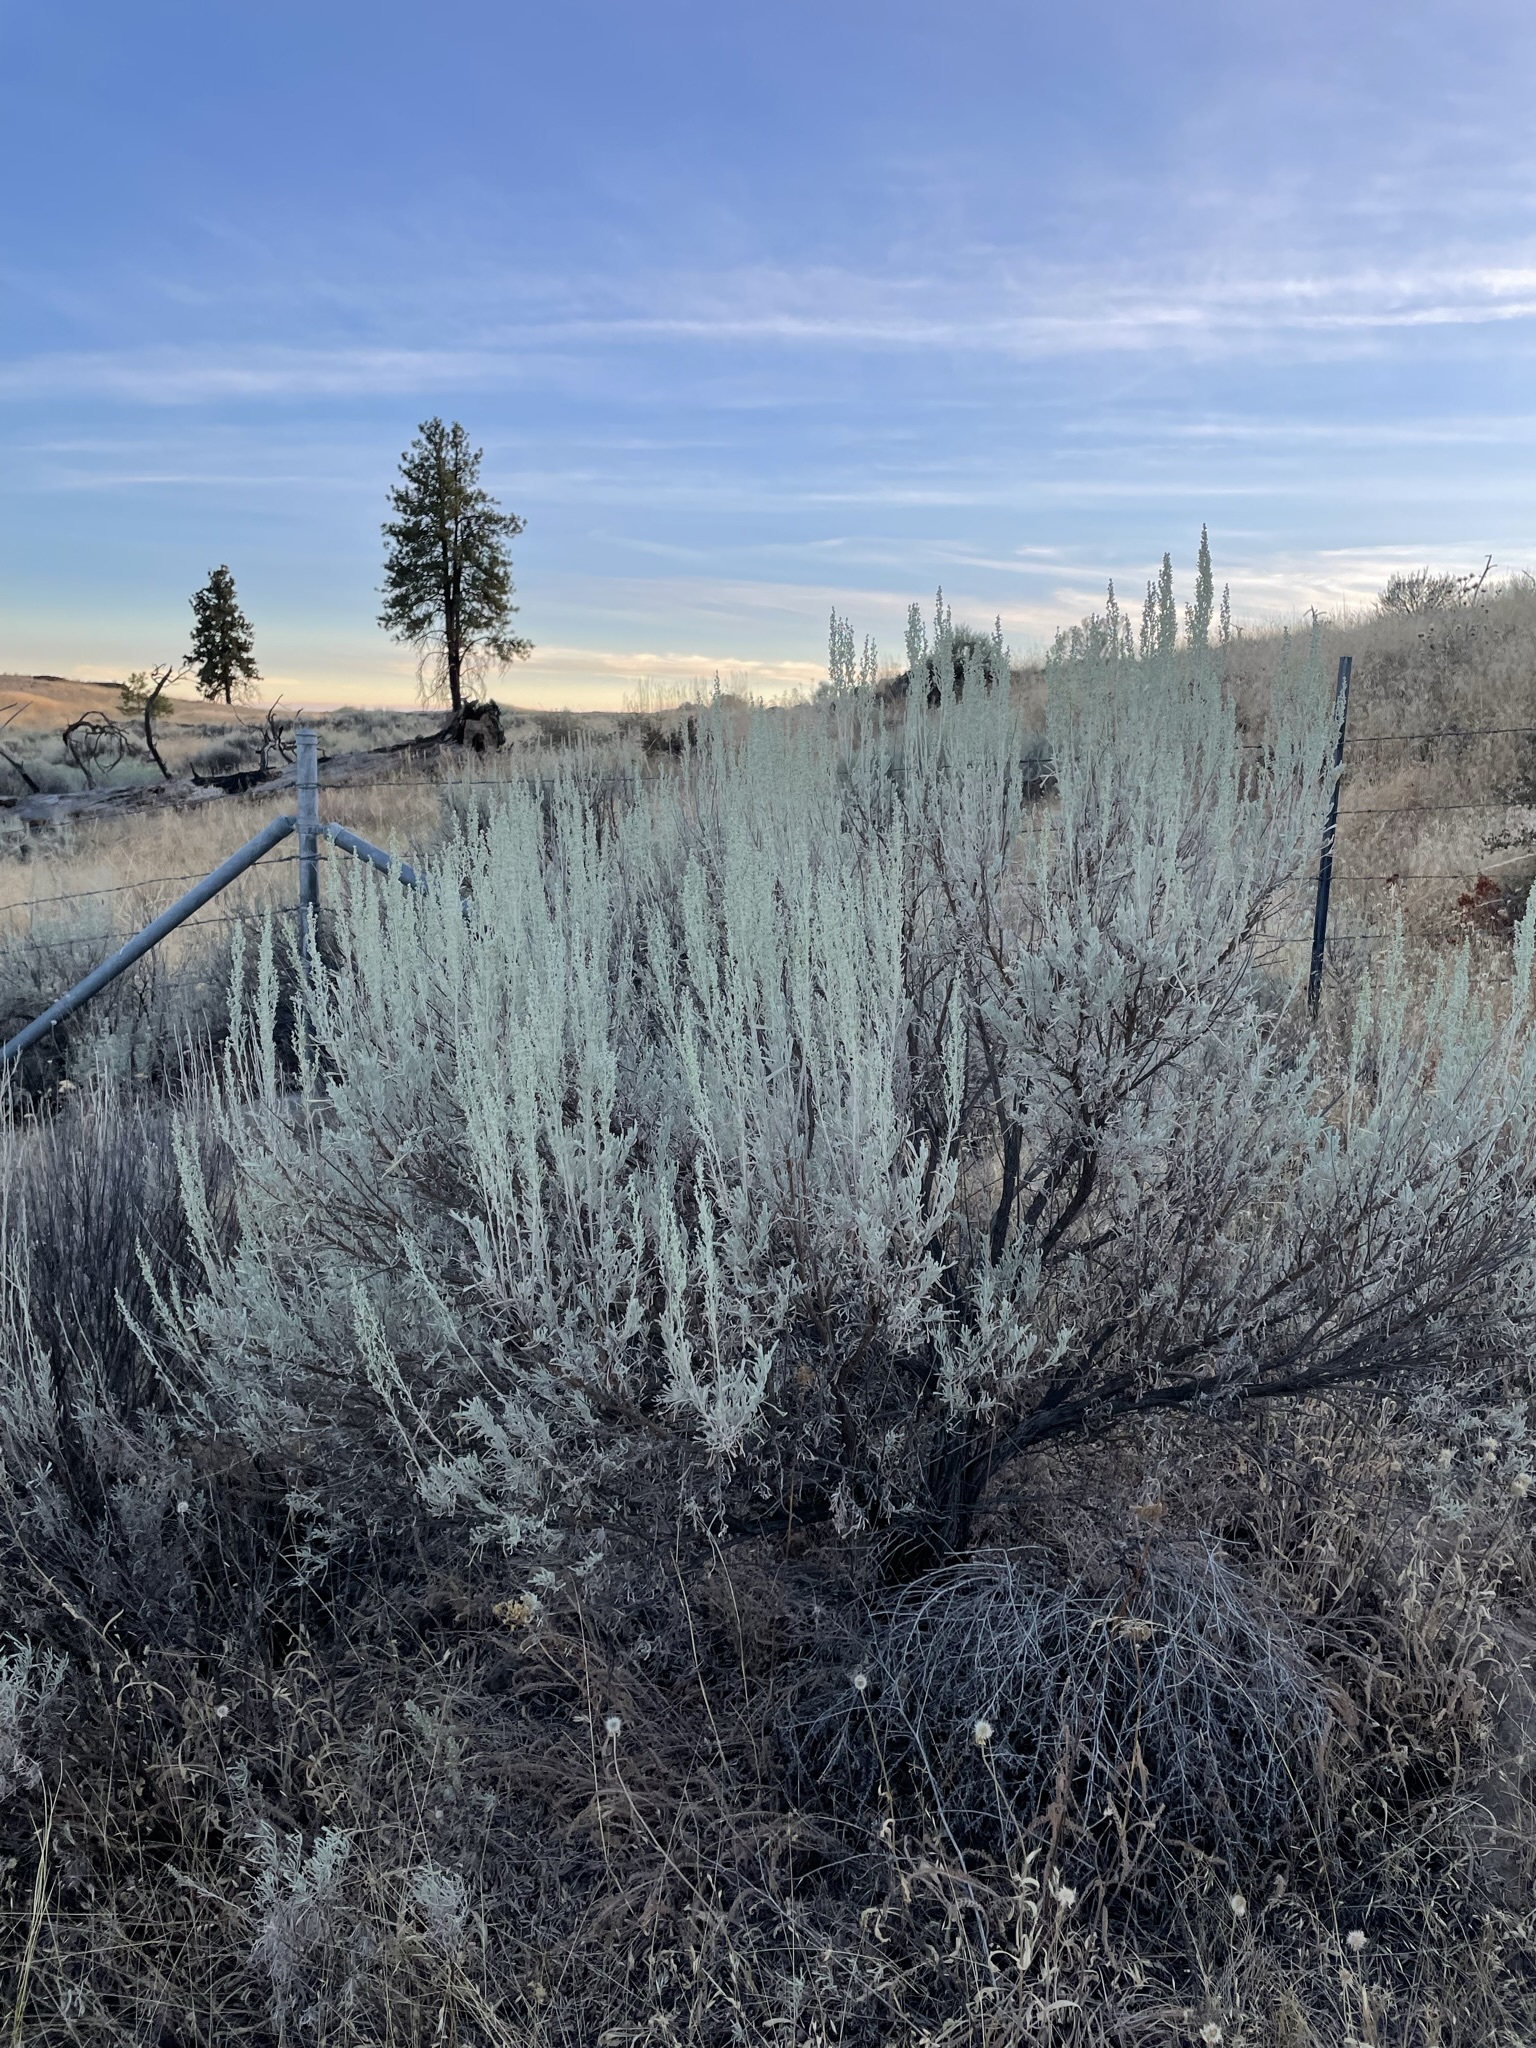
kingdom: Plantae
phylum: Tracheophyta
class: Magnoliopsida
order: Asterales
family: Asteraceae
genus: Artemisia
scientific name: Artemisia tridentata
